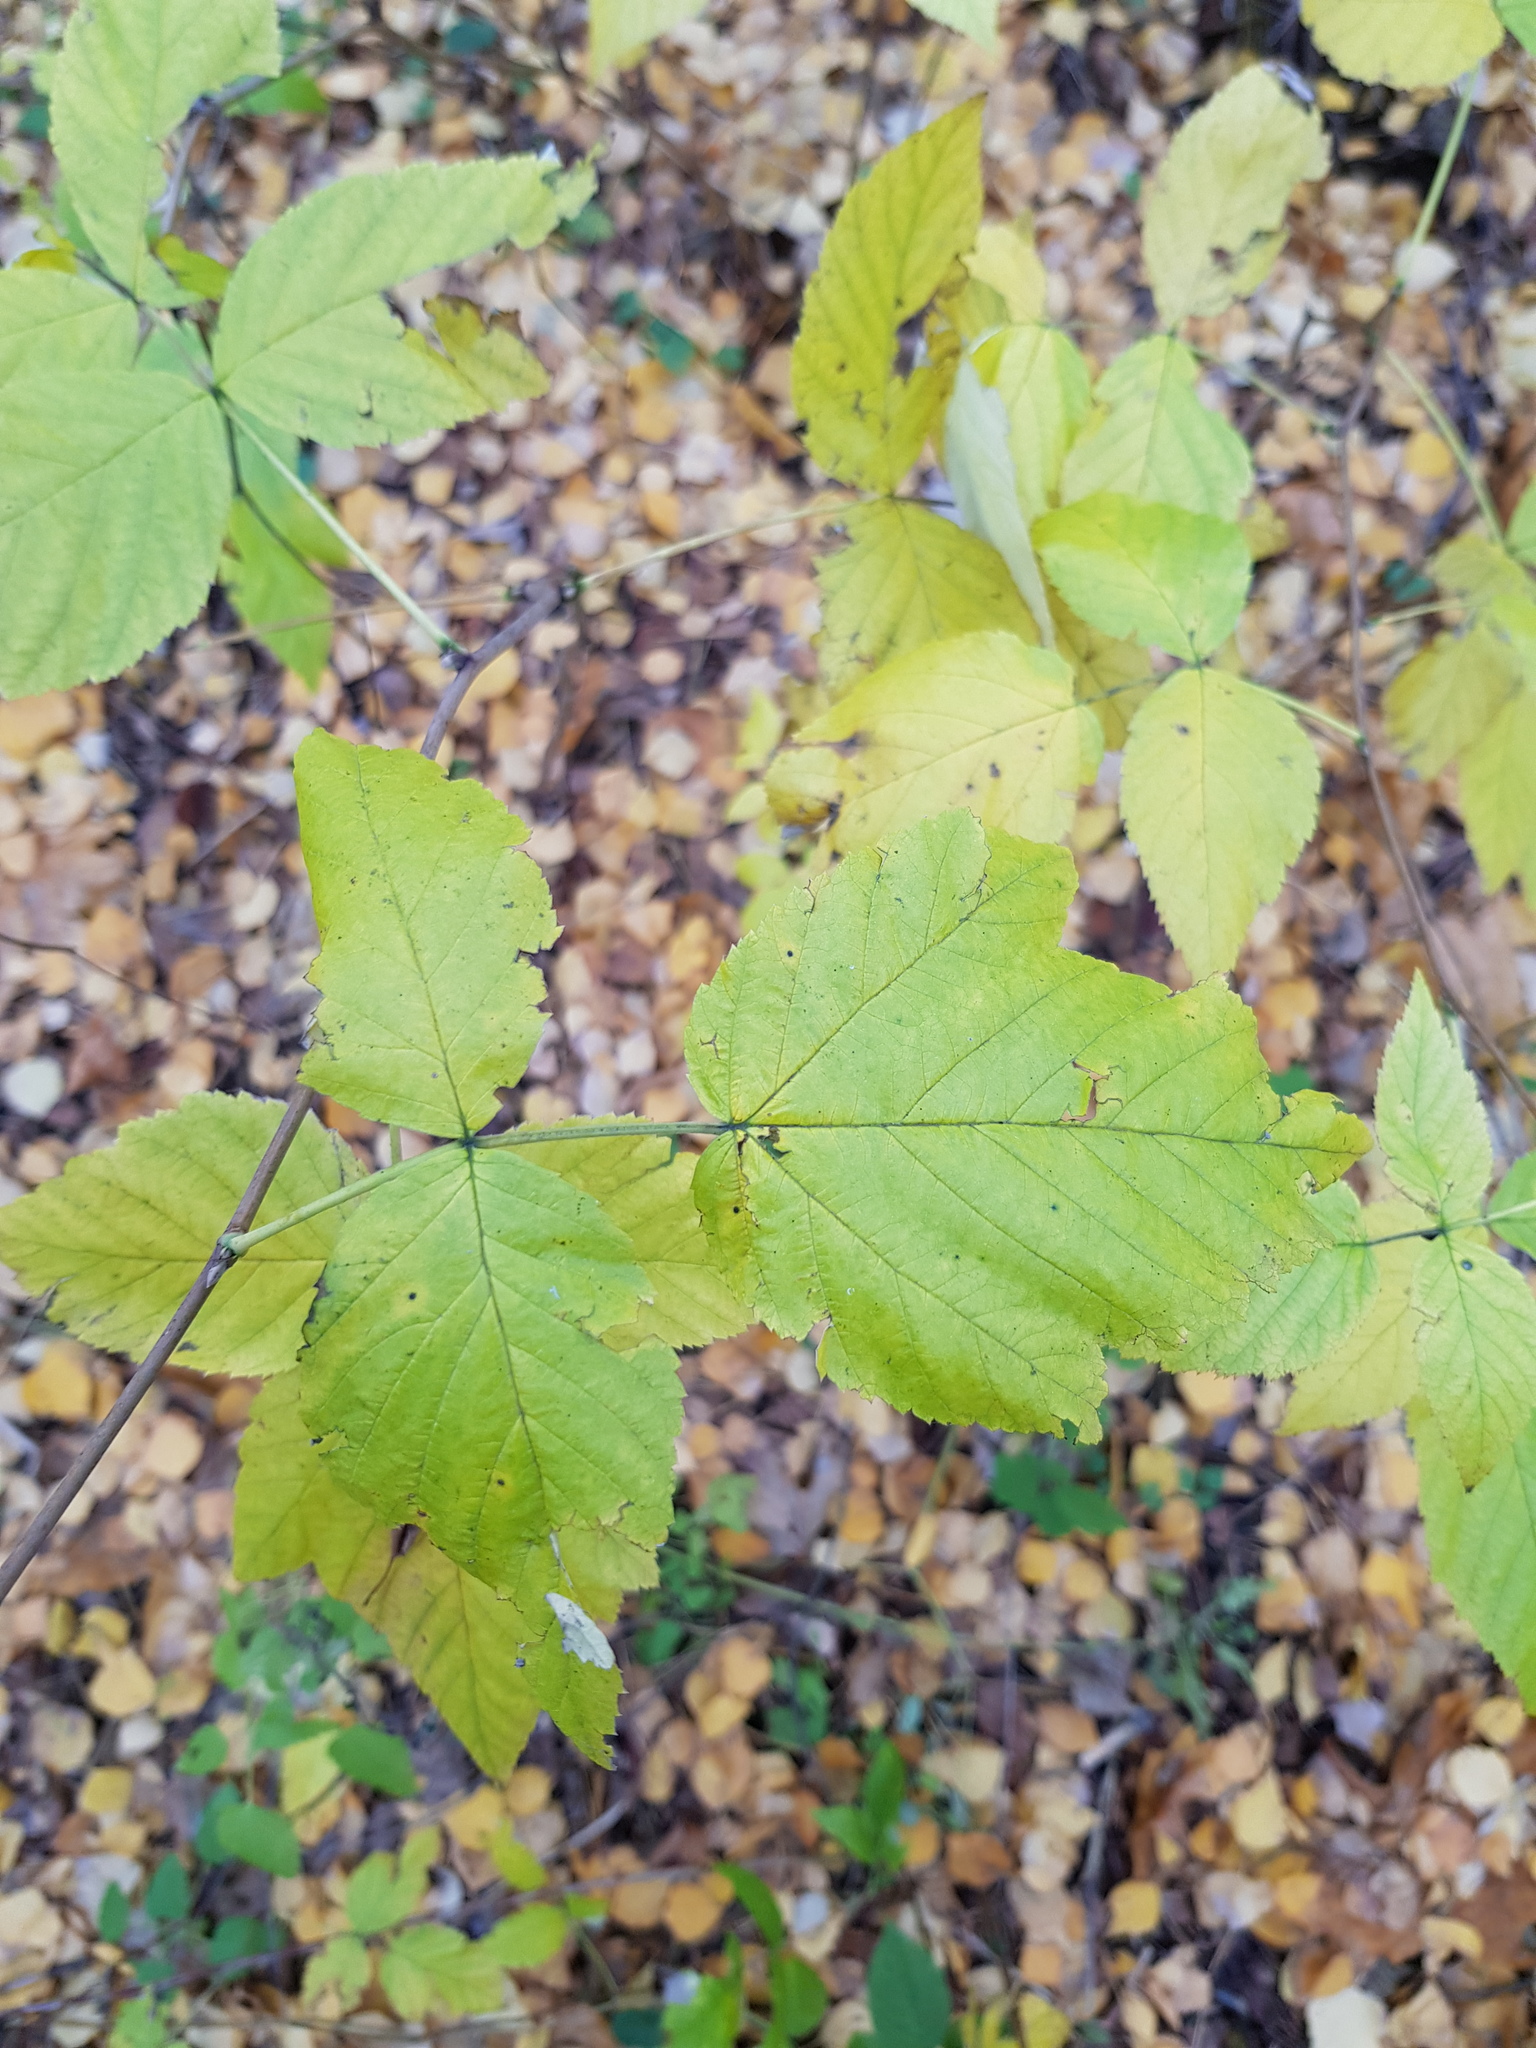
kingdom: Plantae
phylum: Tracheophyta
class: Magnoliopsida
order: Rosales
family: Rosaceae
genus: Rubus
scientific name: Rubus idaeus
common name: Raspberry
